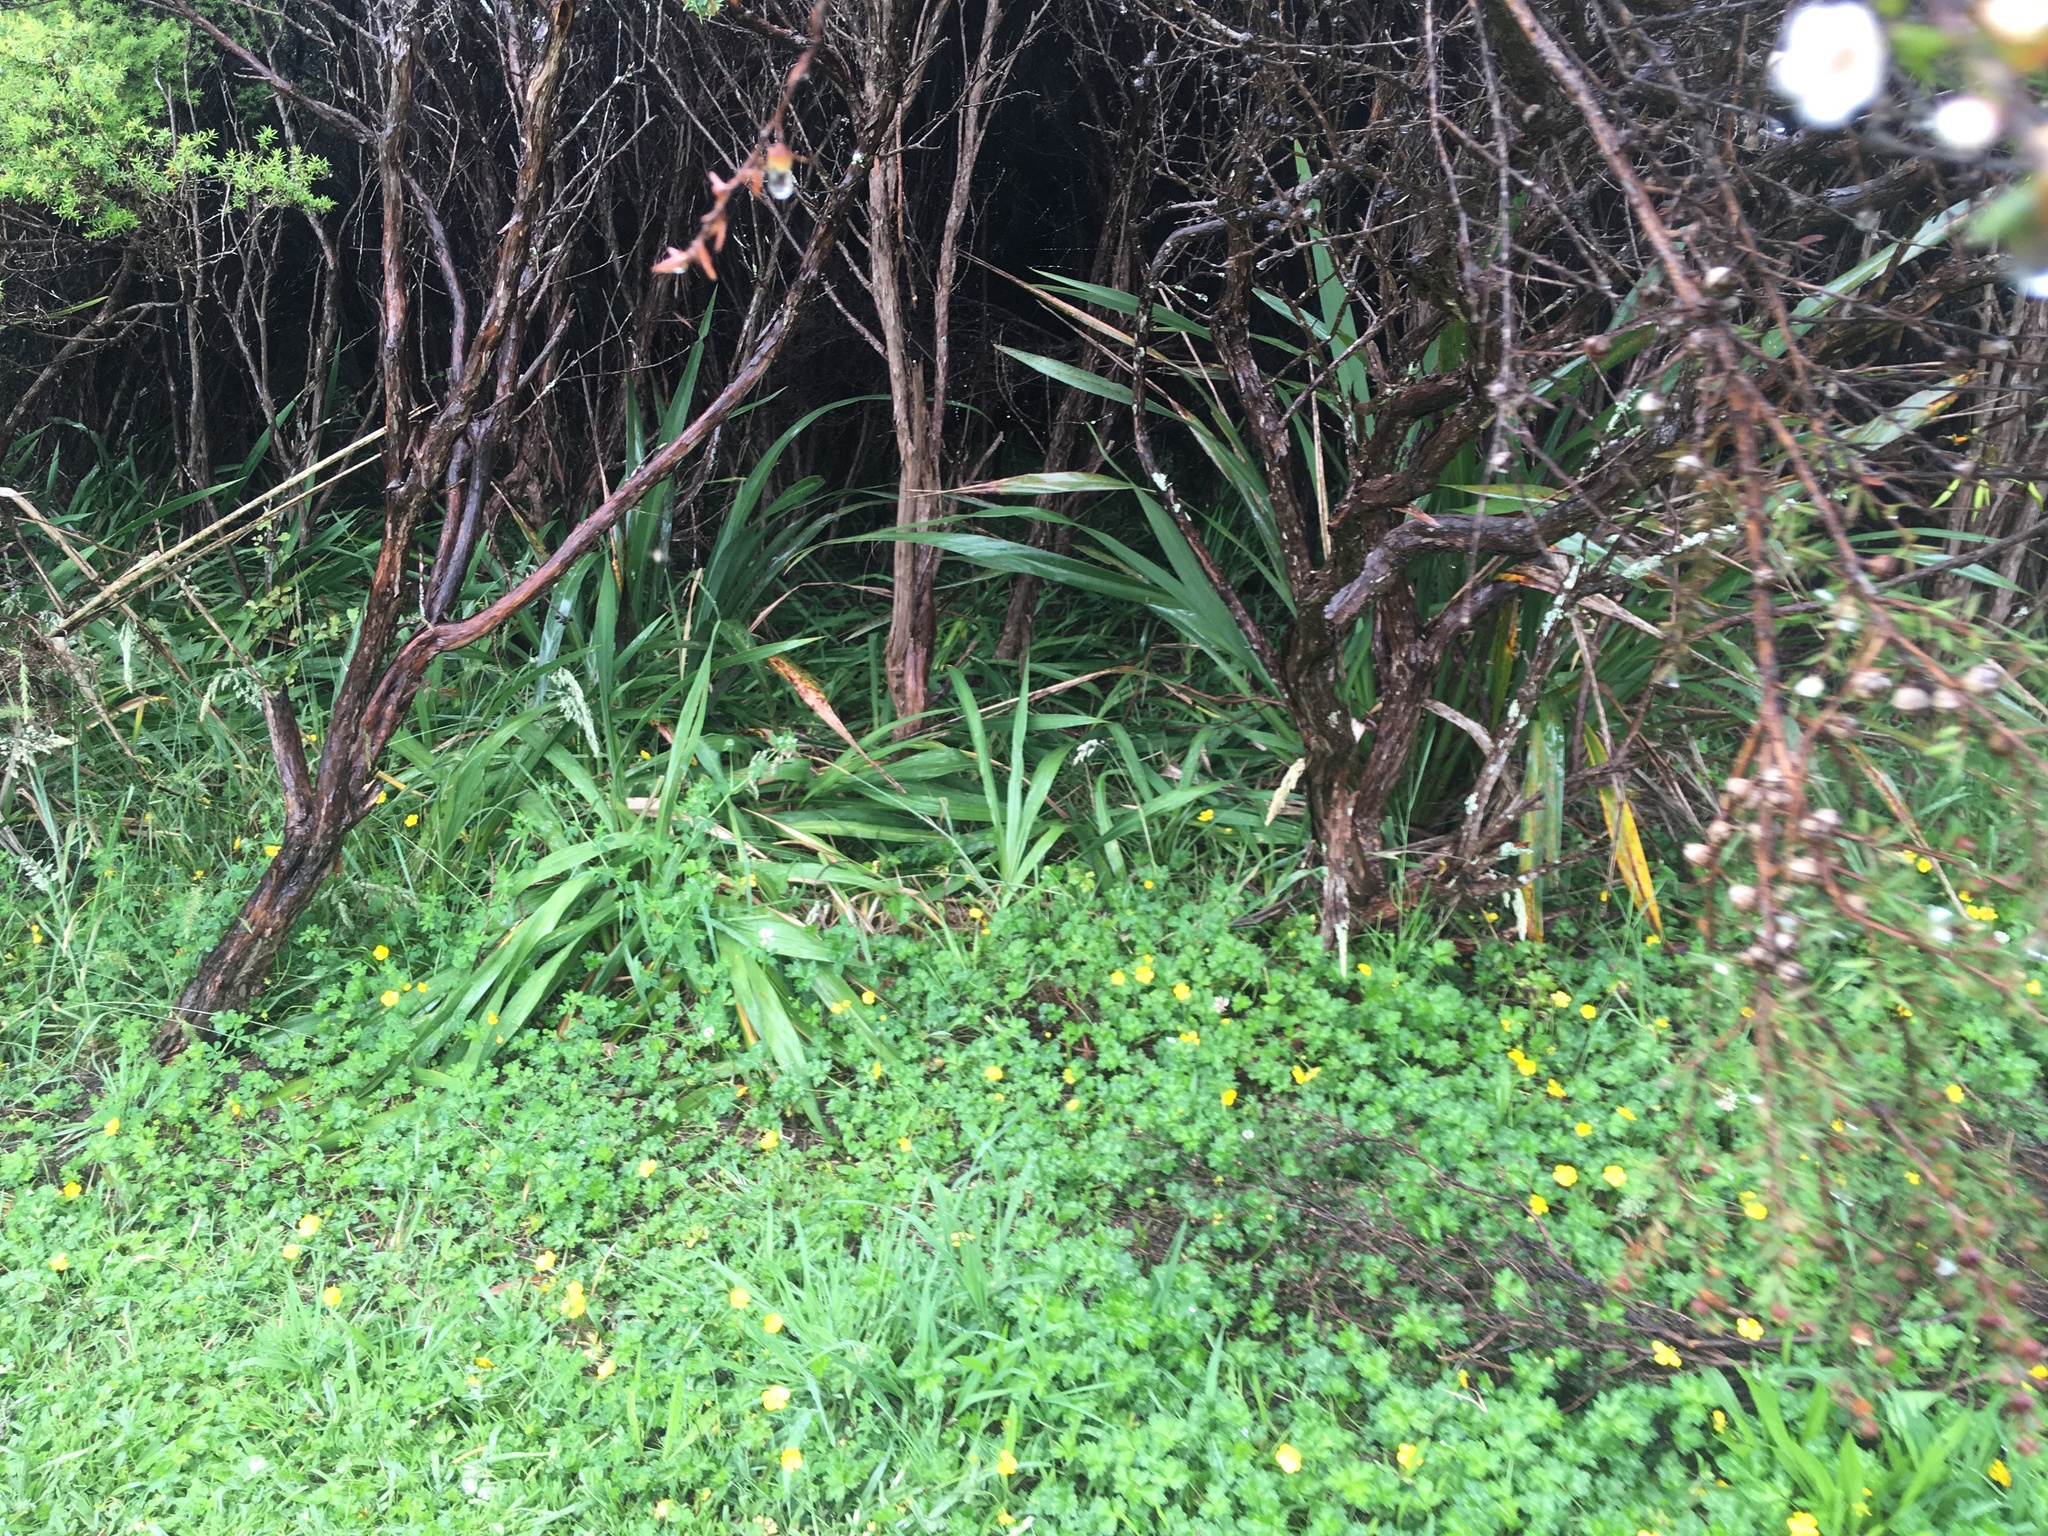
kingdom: Plantae
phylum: Tracheophyta
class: Magnoliopsida
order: Myrtales
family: Myrtaceae
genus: Leptospermum
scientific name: Leptospermum scoparium
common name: Broom tea-tree
